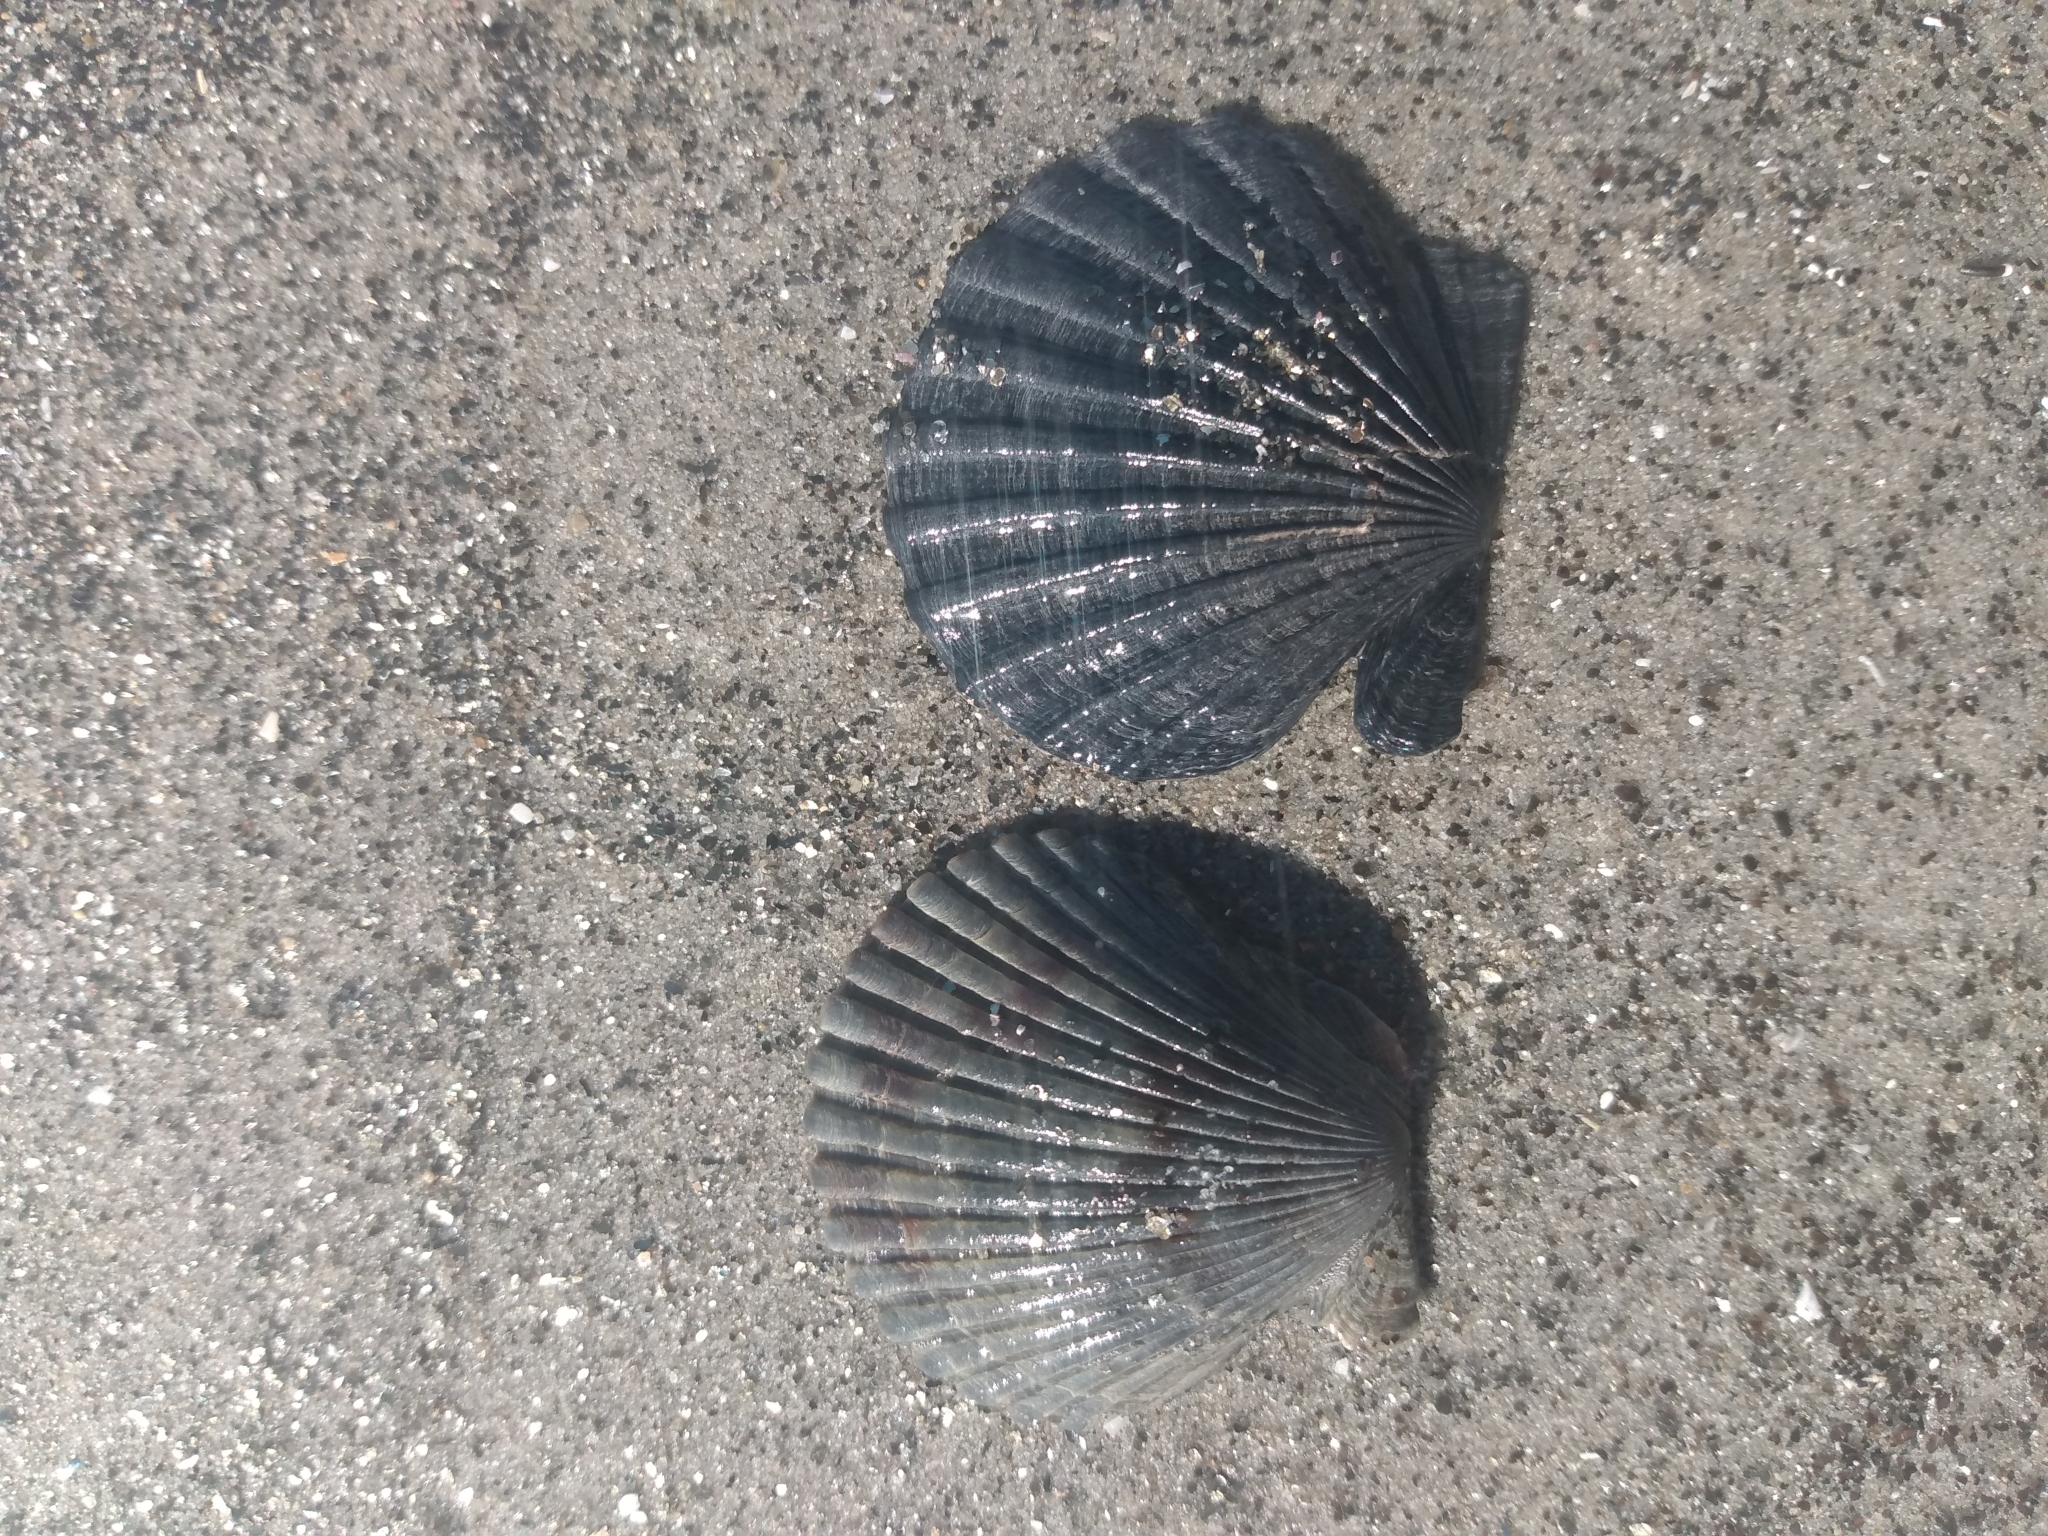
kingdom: Animalia
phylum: Mollusca
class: Bivalvia
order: Pectinida
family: Pectinidae
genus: Argopecten
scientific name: Argopecten ventricosus
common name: Catarina scallop
